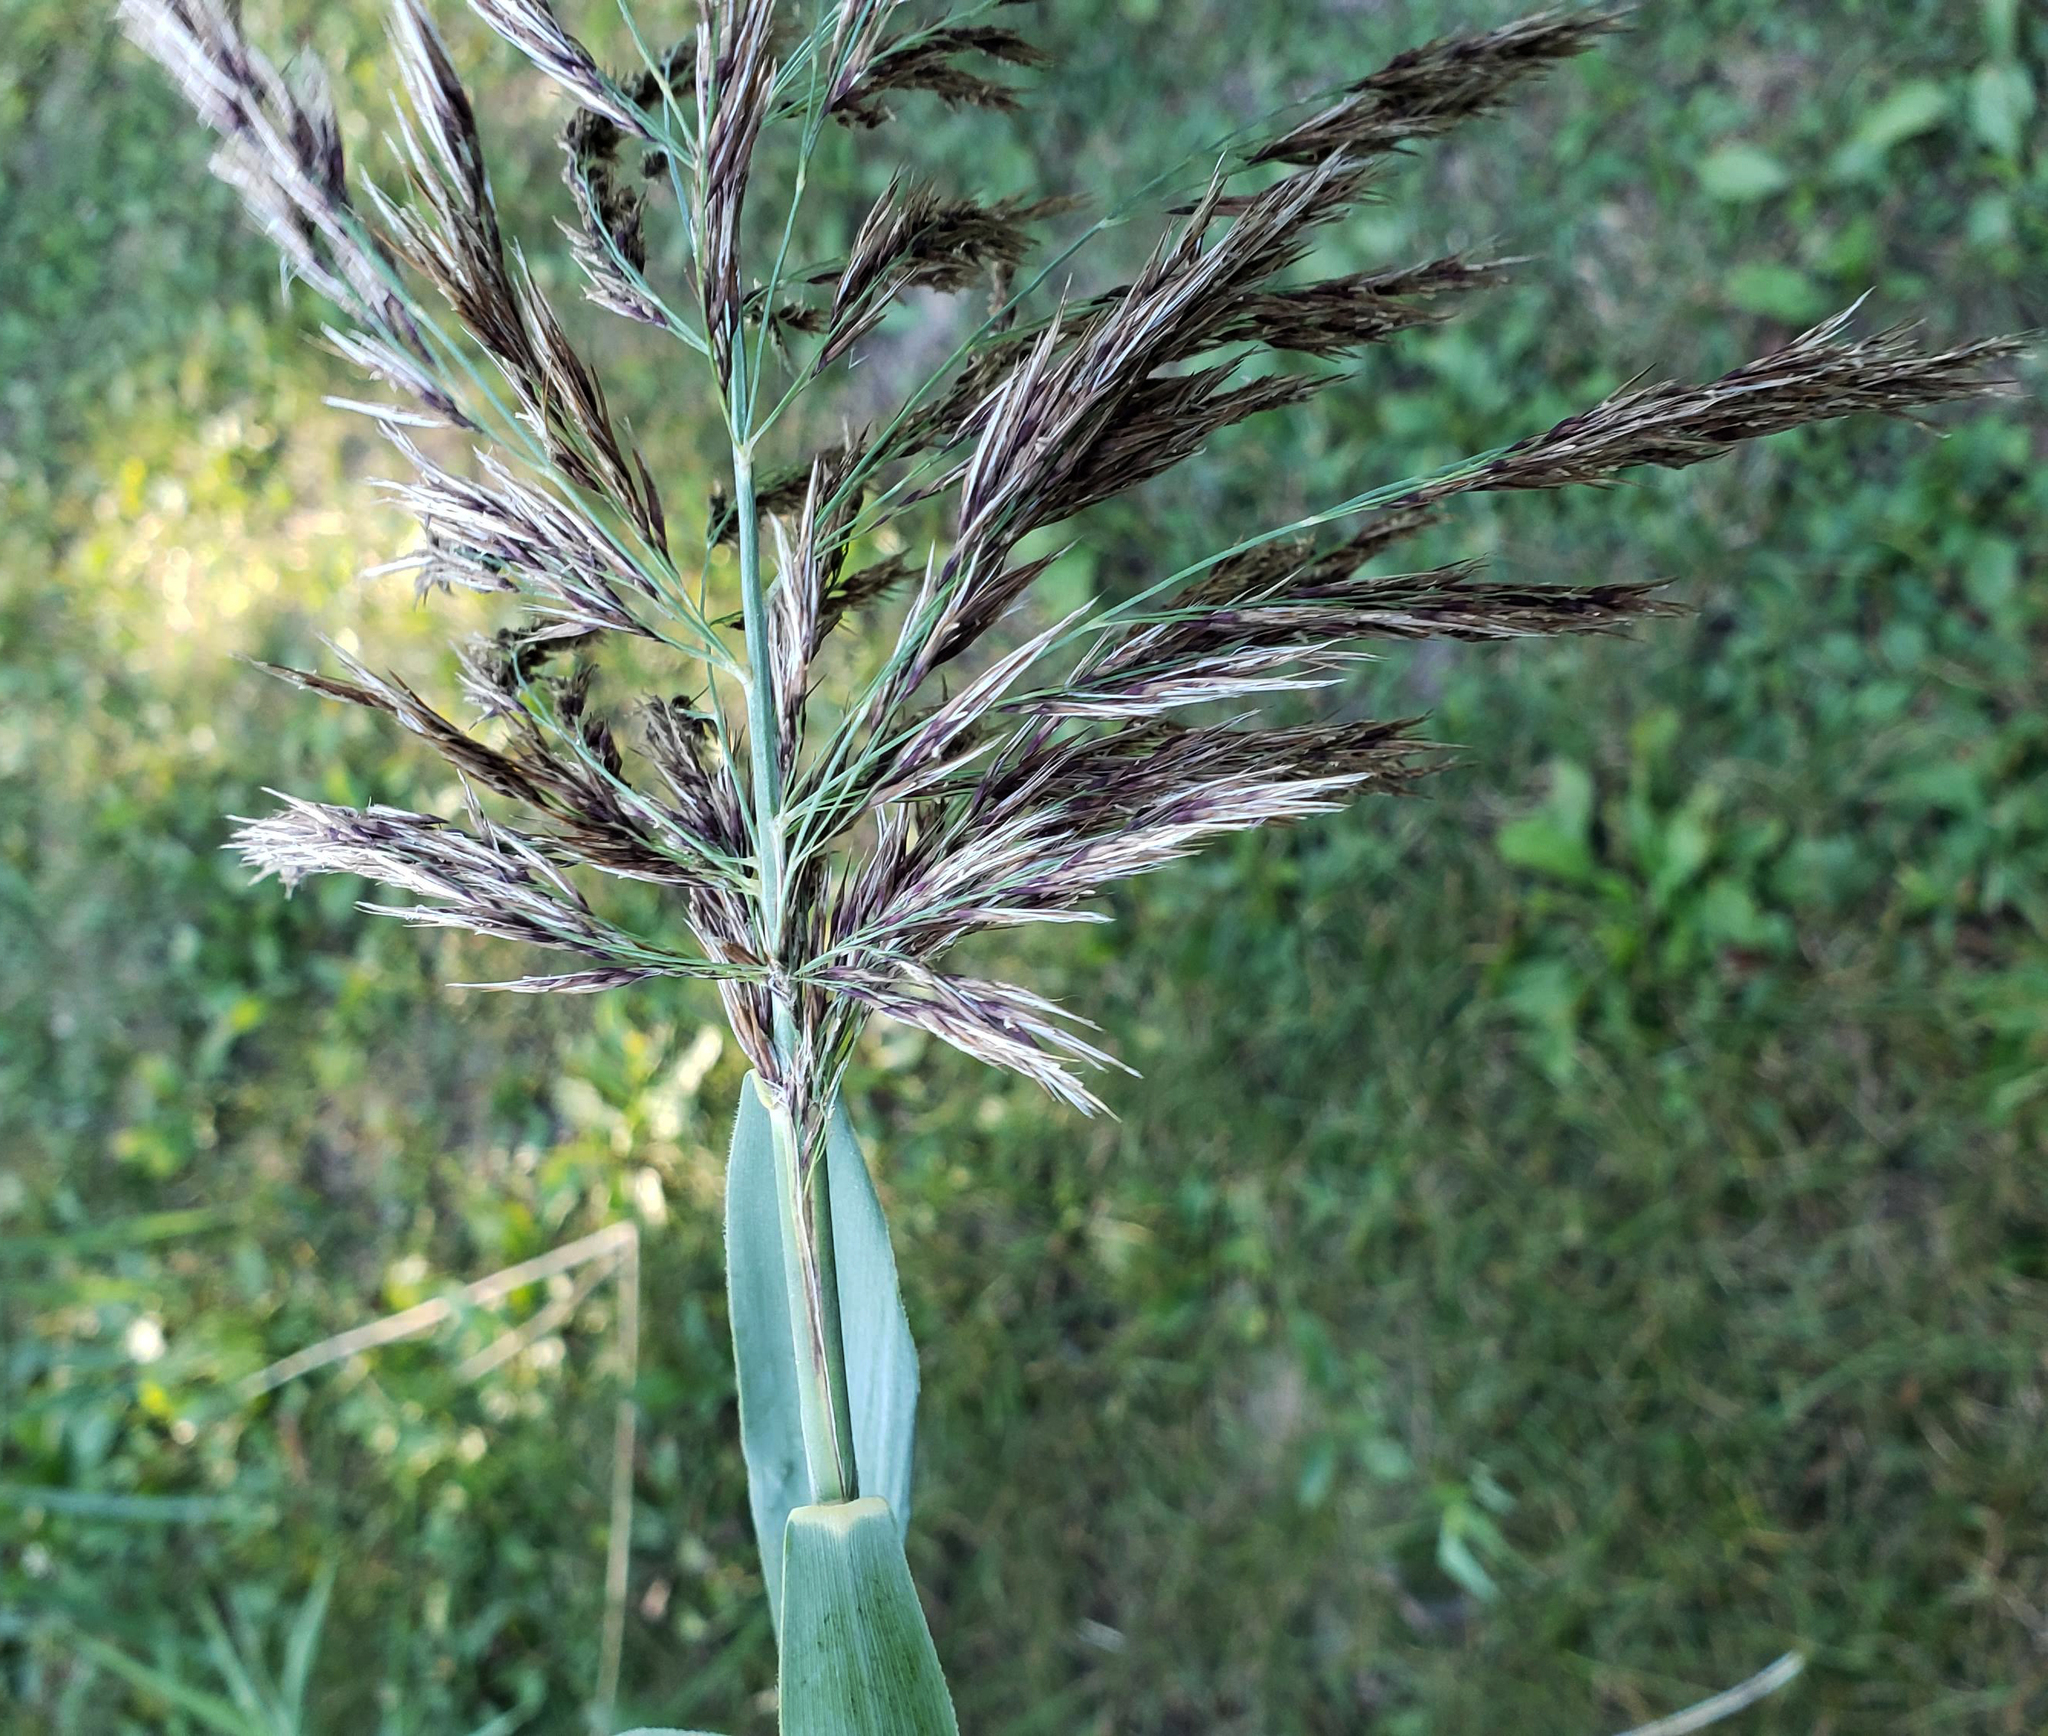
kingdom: Plantae
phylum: Tracheophyta
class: Liliopsida
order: Poales
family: Poaceae
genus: Phragmites
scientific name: Phragmites australis
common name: Common reed
